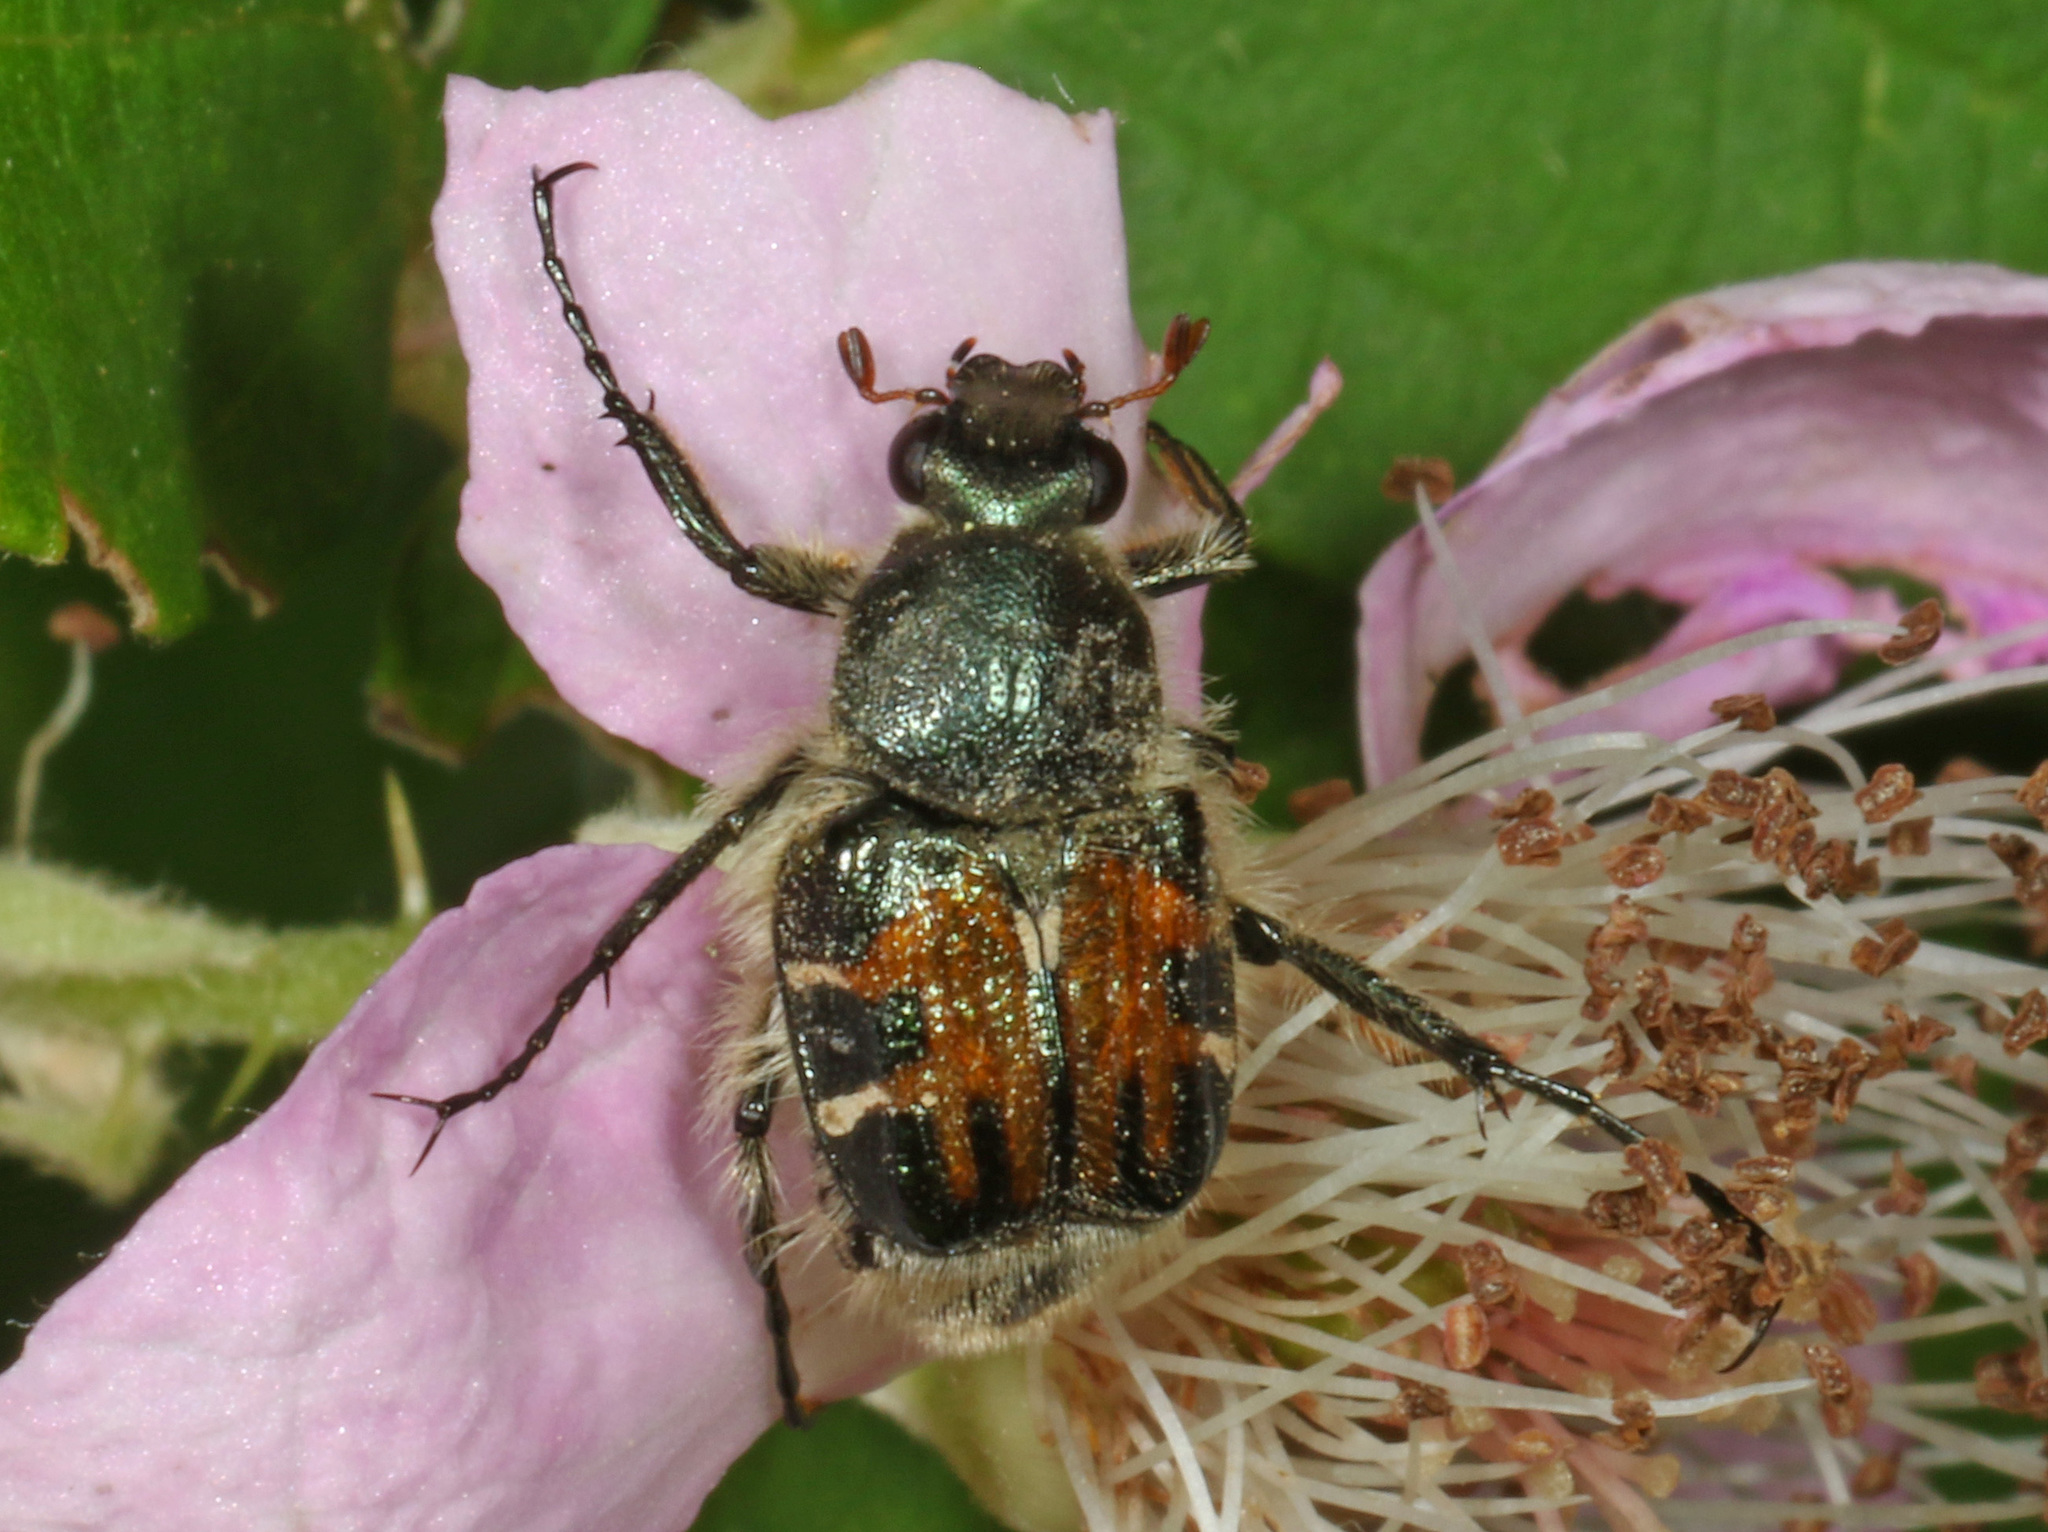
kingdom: Animalia
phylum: Arthropoda
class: Insecta
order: Coleoptera
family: Scarabaeidae
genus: Trichiotinus
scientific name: Trichiotinus affinis
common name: Hairy flower scarab
